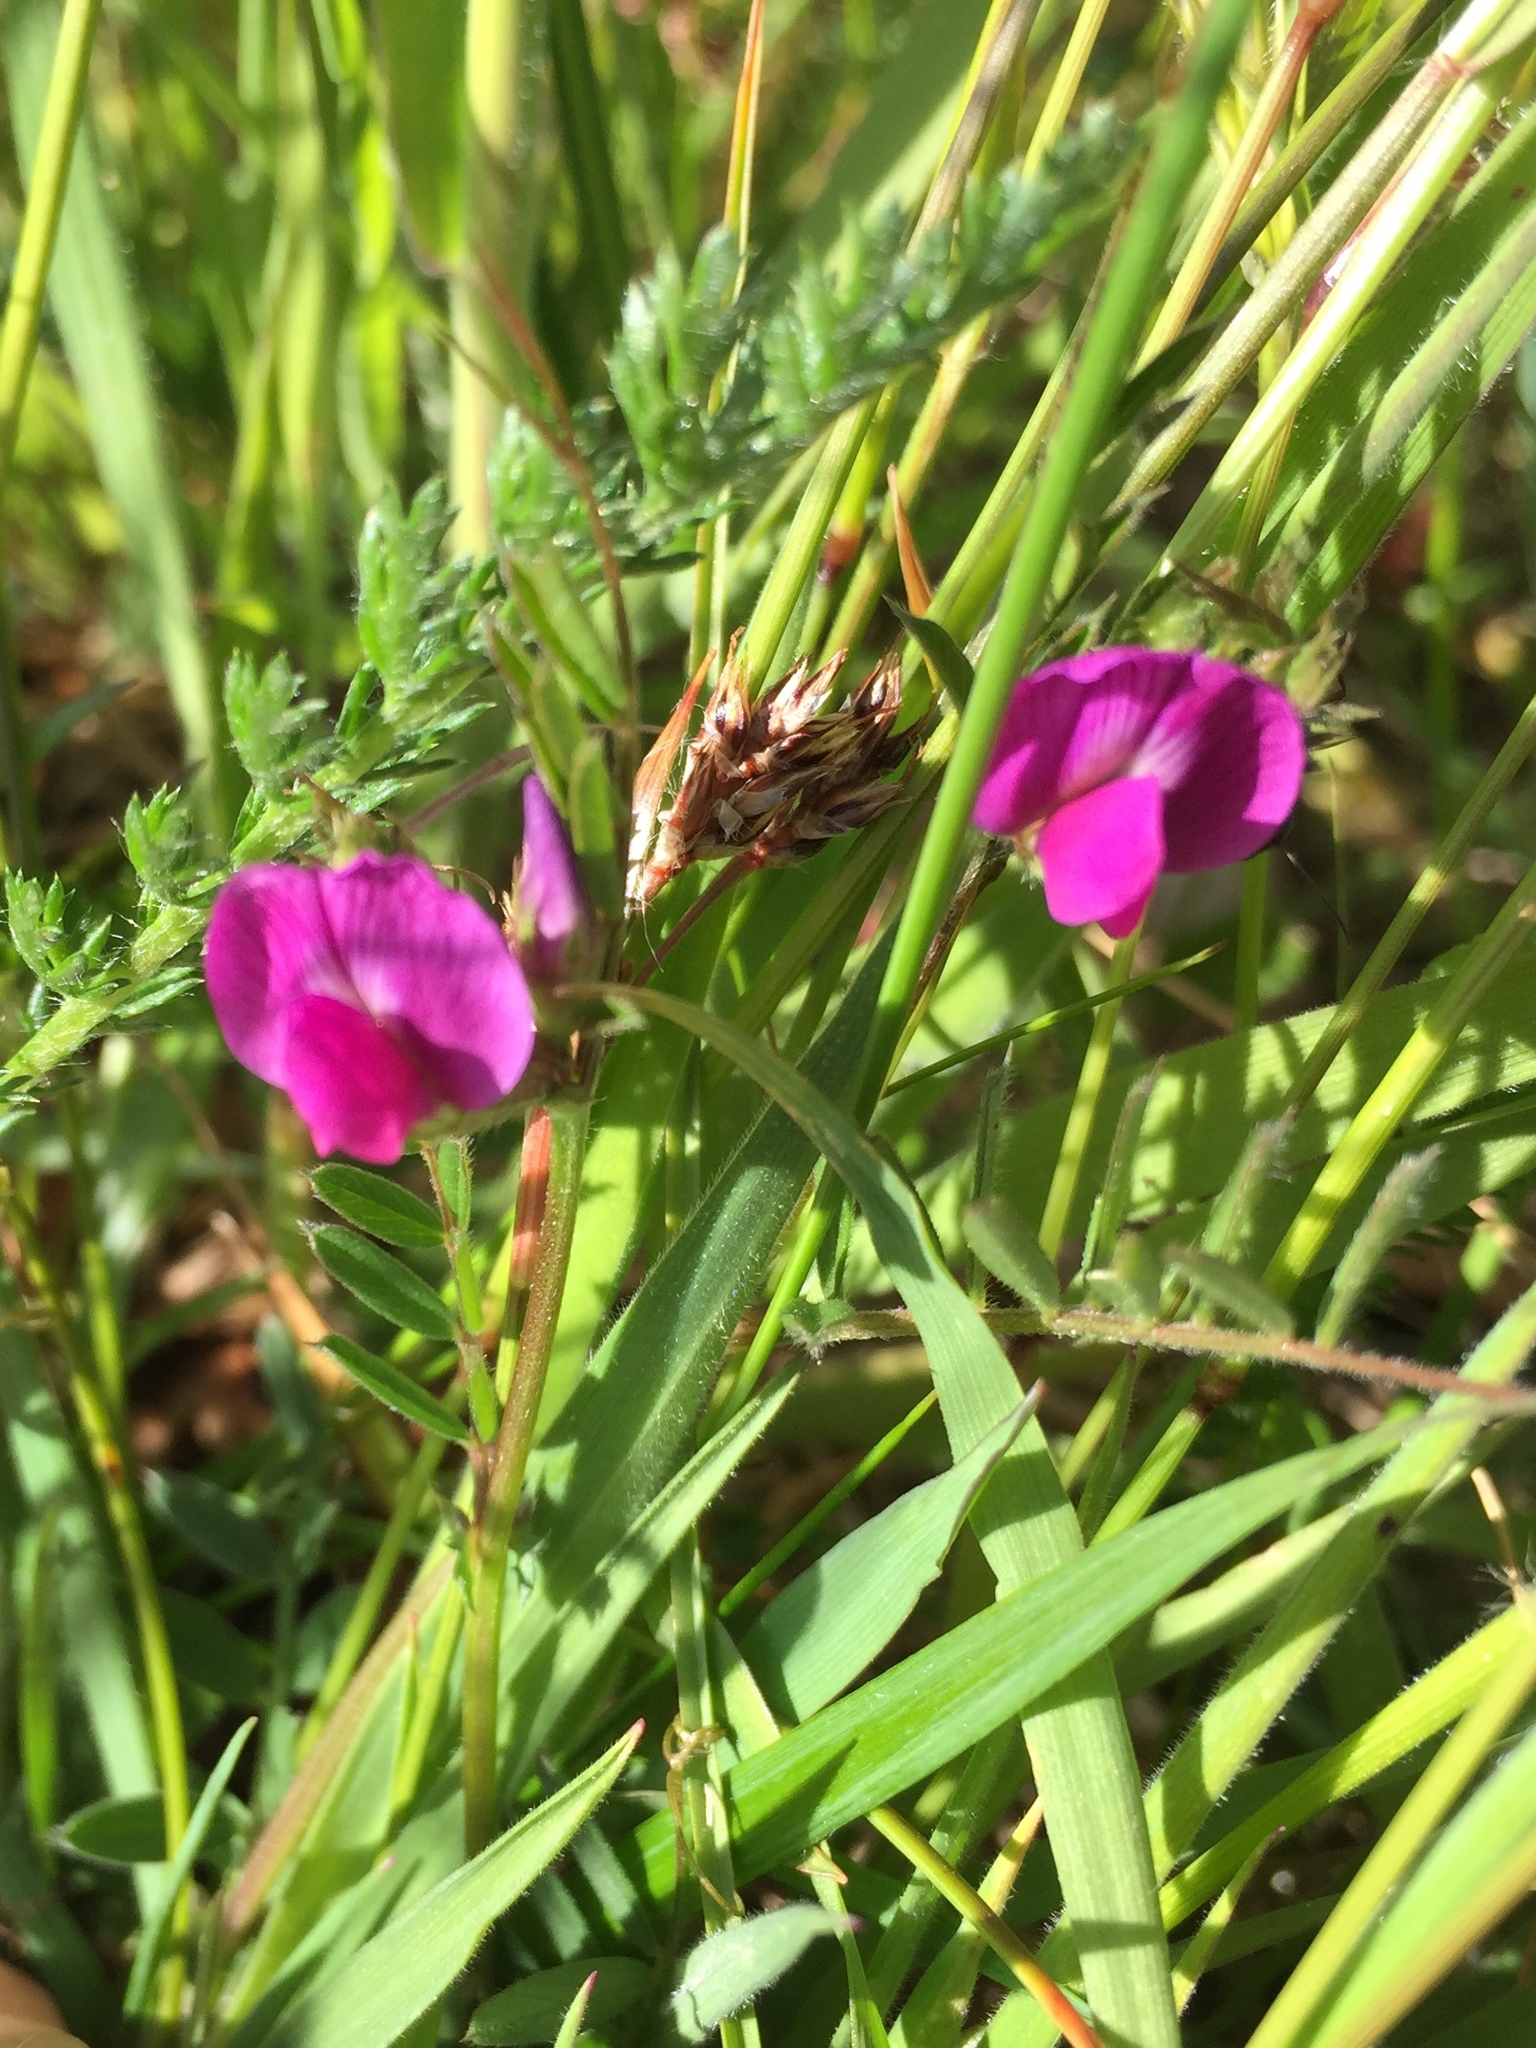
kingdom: Plantae
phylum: Tracheophyta
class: Magnoliopsida
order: Fabales
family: Fabaceae
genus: Vicia
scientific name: Vicia sativa
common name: Garden vetch
